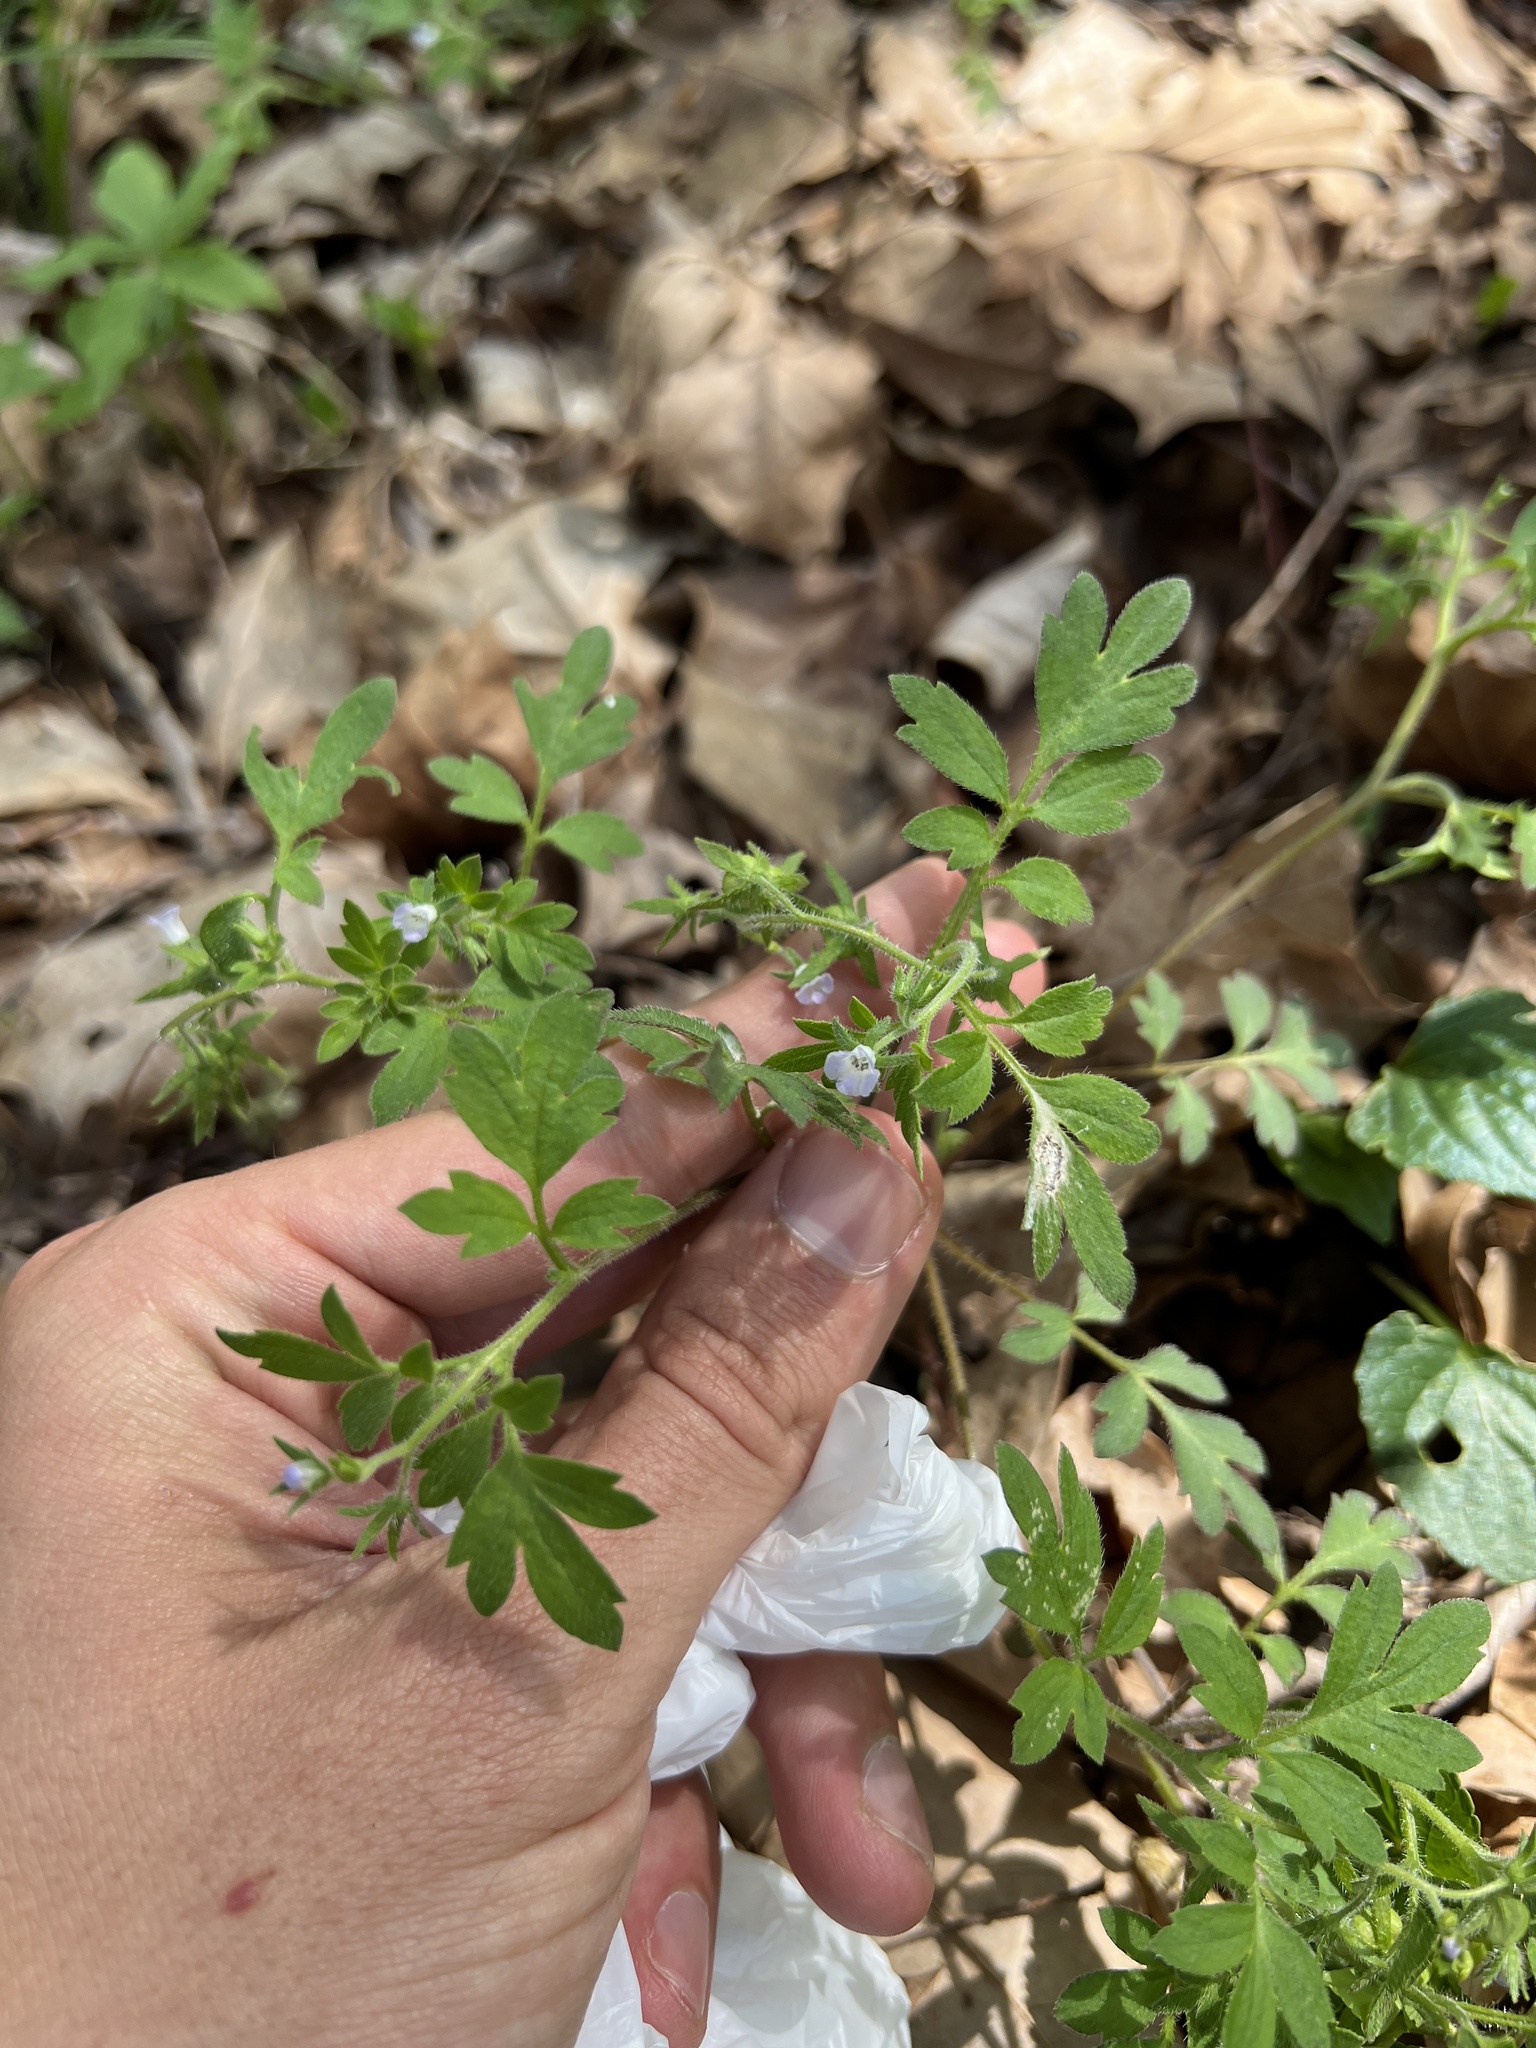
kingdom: Plantae
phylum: Tracheophyta
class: Magnoliopsida
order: Boraginales
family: Hydrophyllaceae
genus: Phacelia
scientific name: Phacelia covillei
